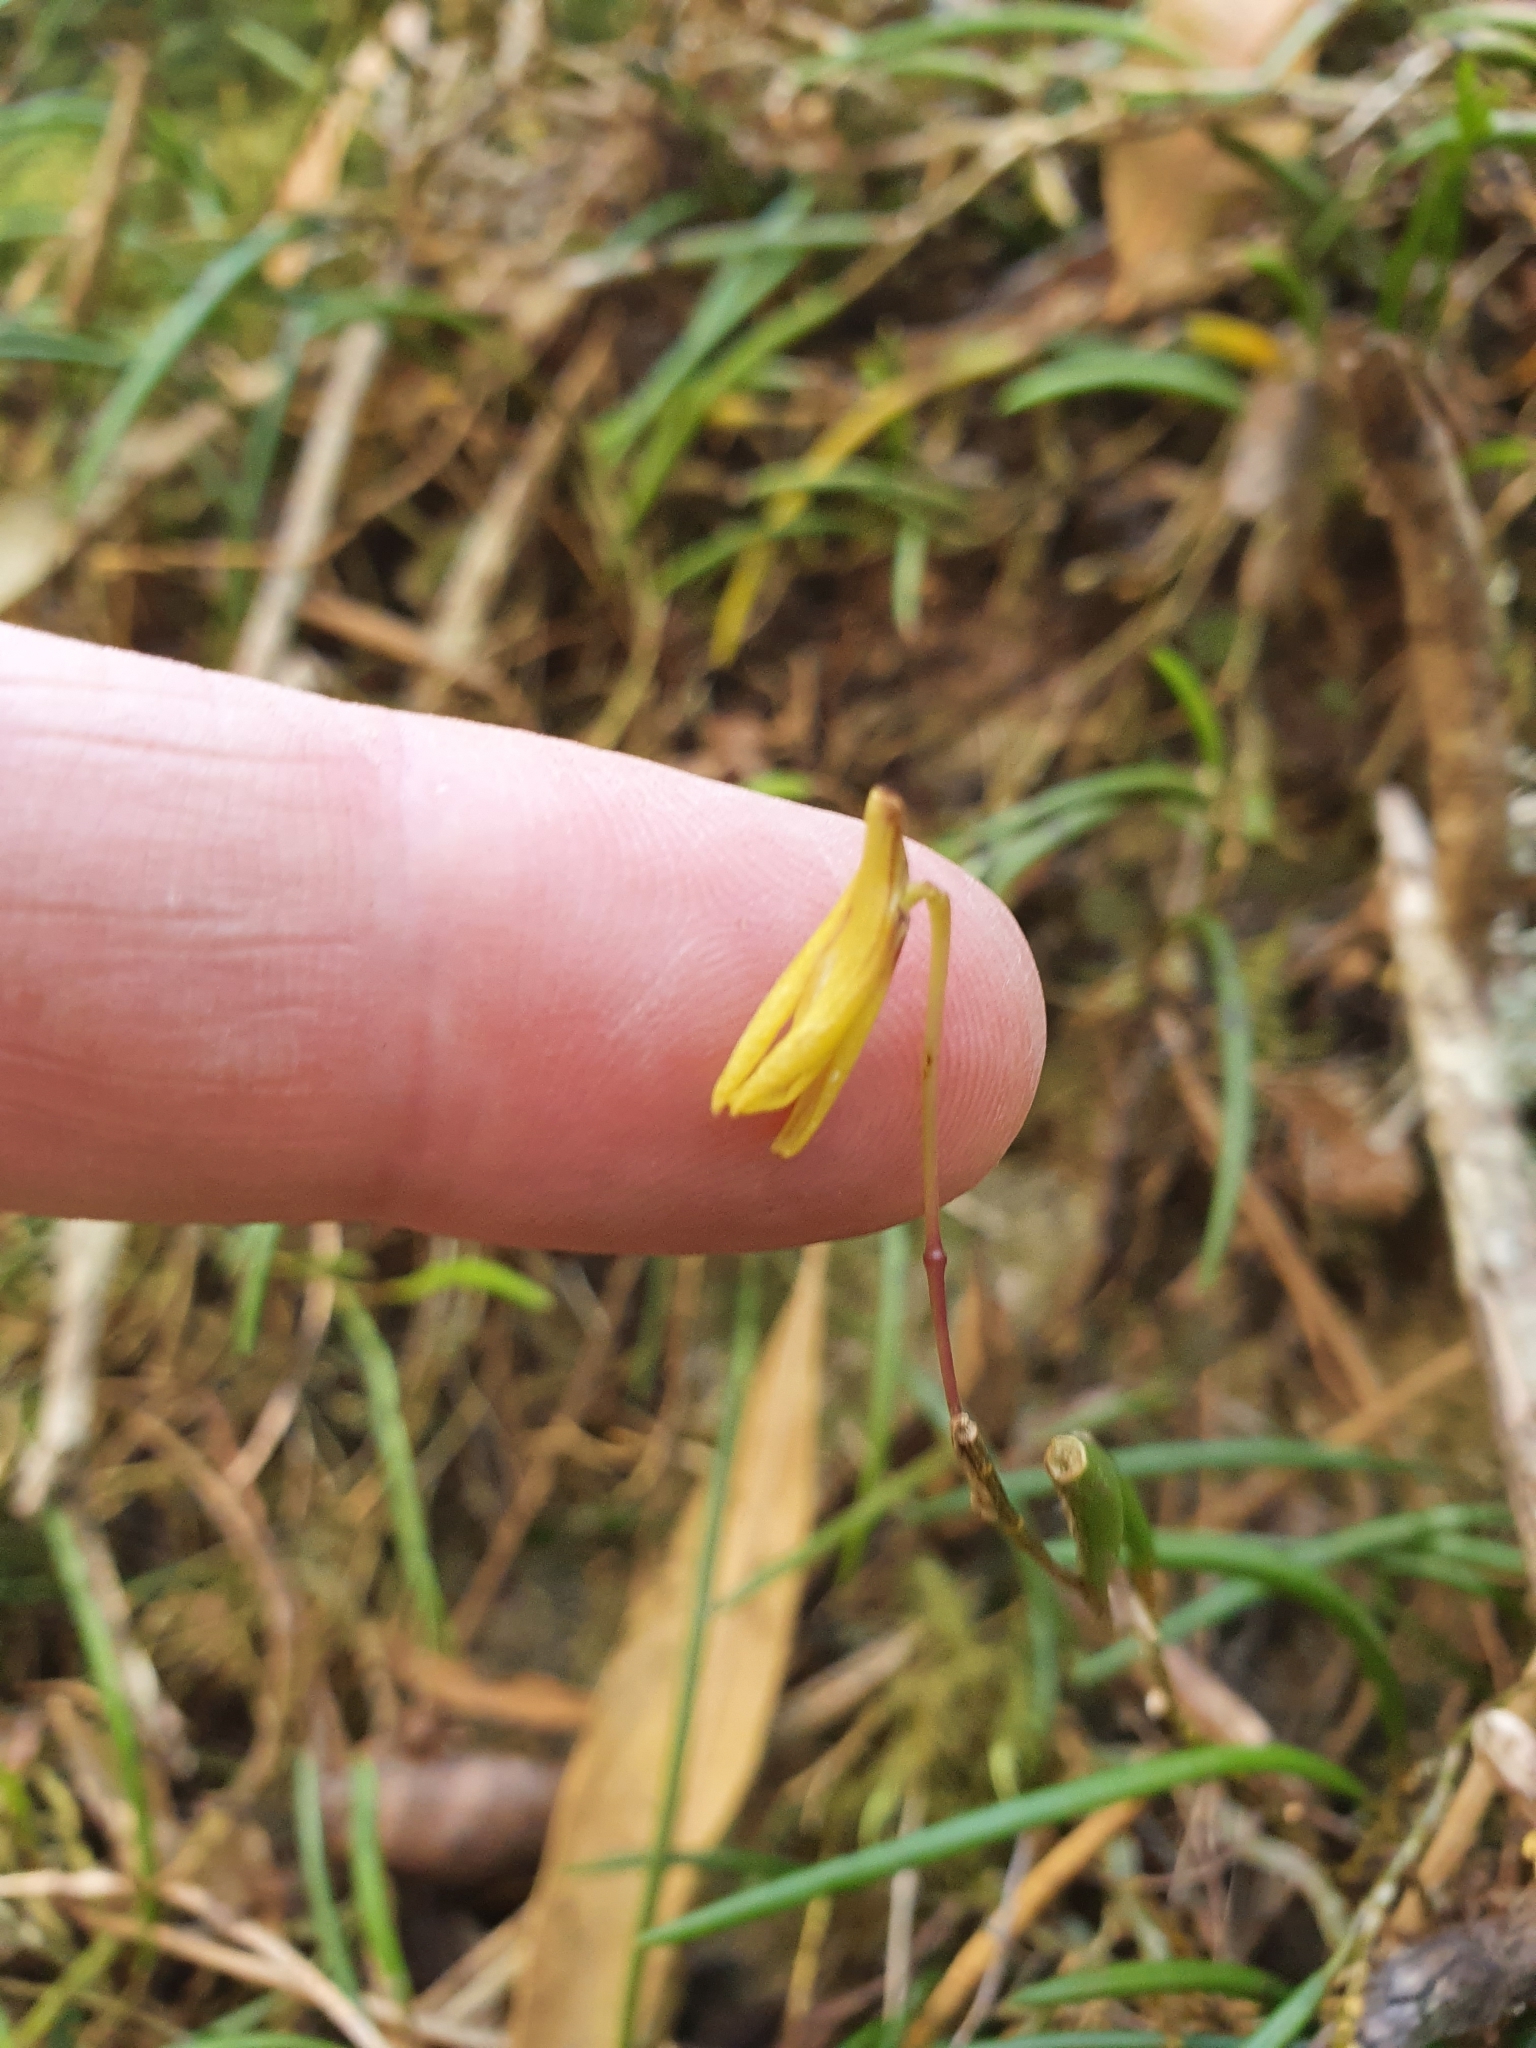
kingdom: Plantae
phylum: Tracheophyta
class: Liliopsida
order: Asparagales
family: Orchidaceae
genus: Dendrobium
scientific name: Dendrobium striolatum
